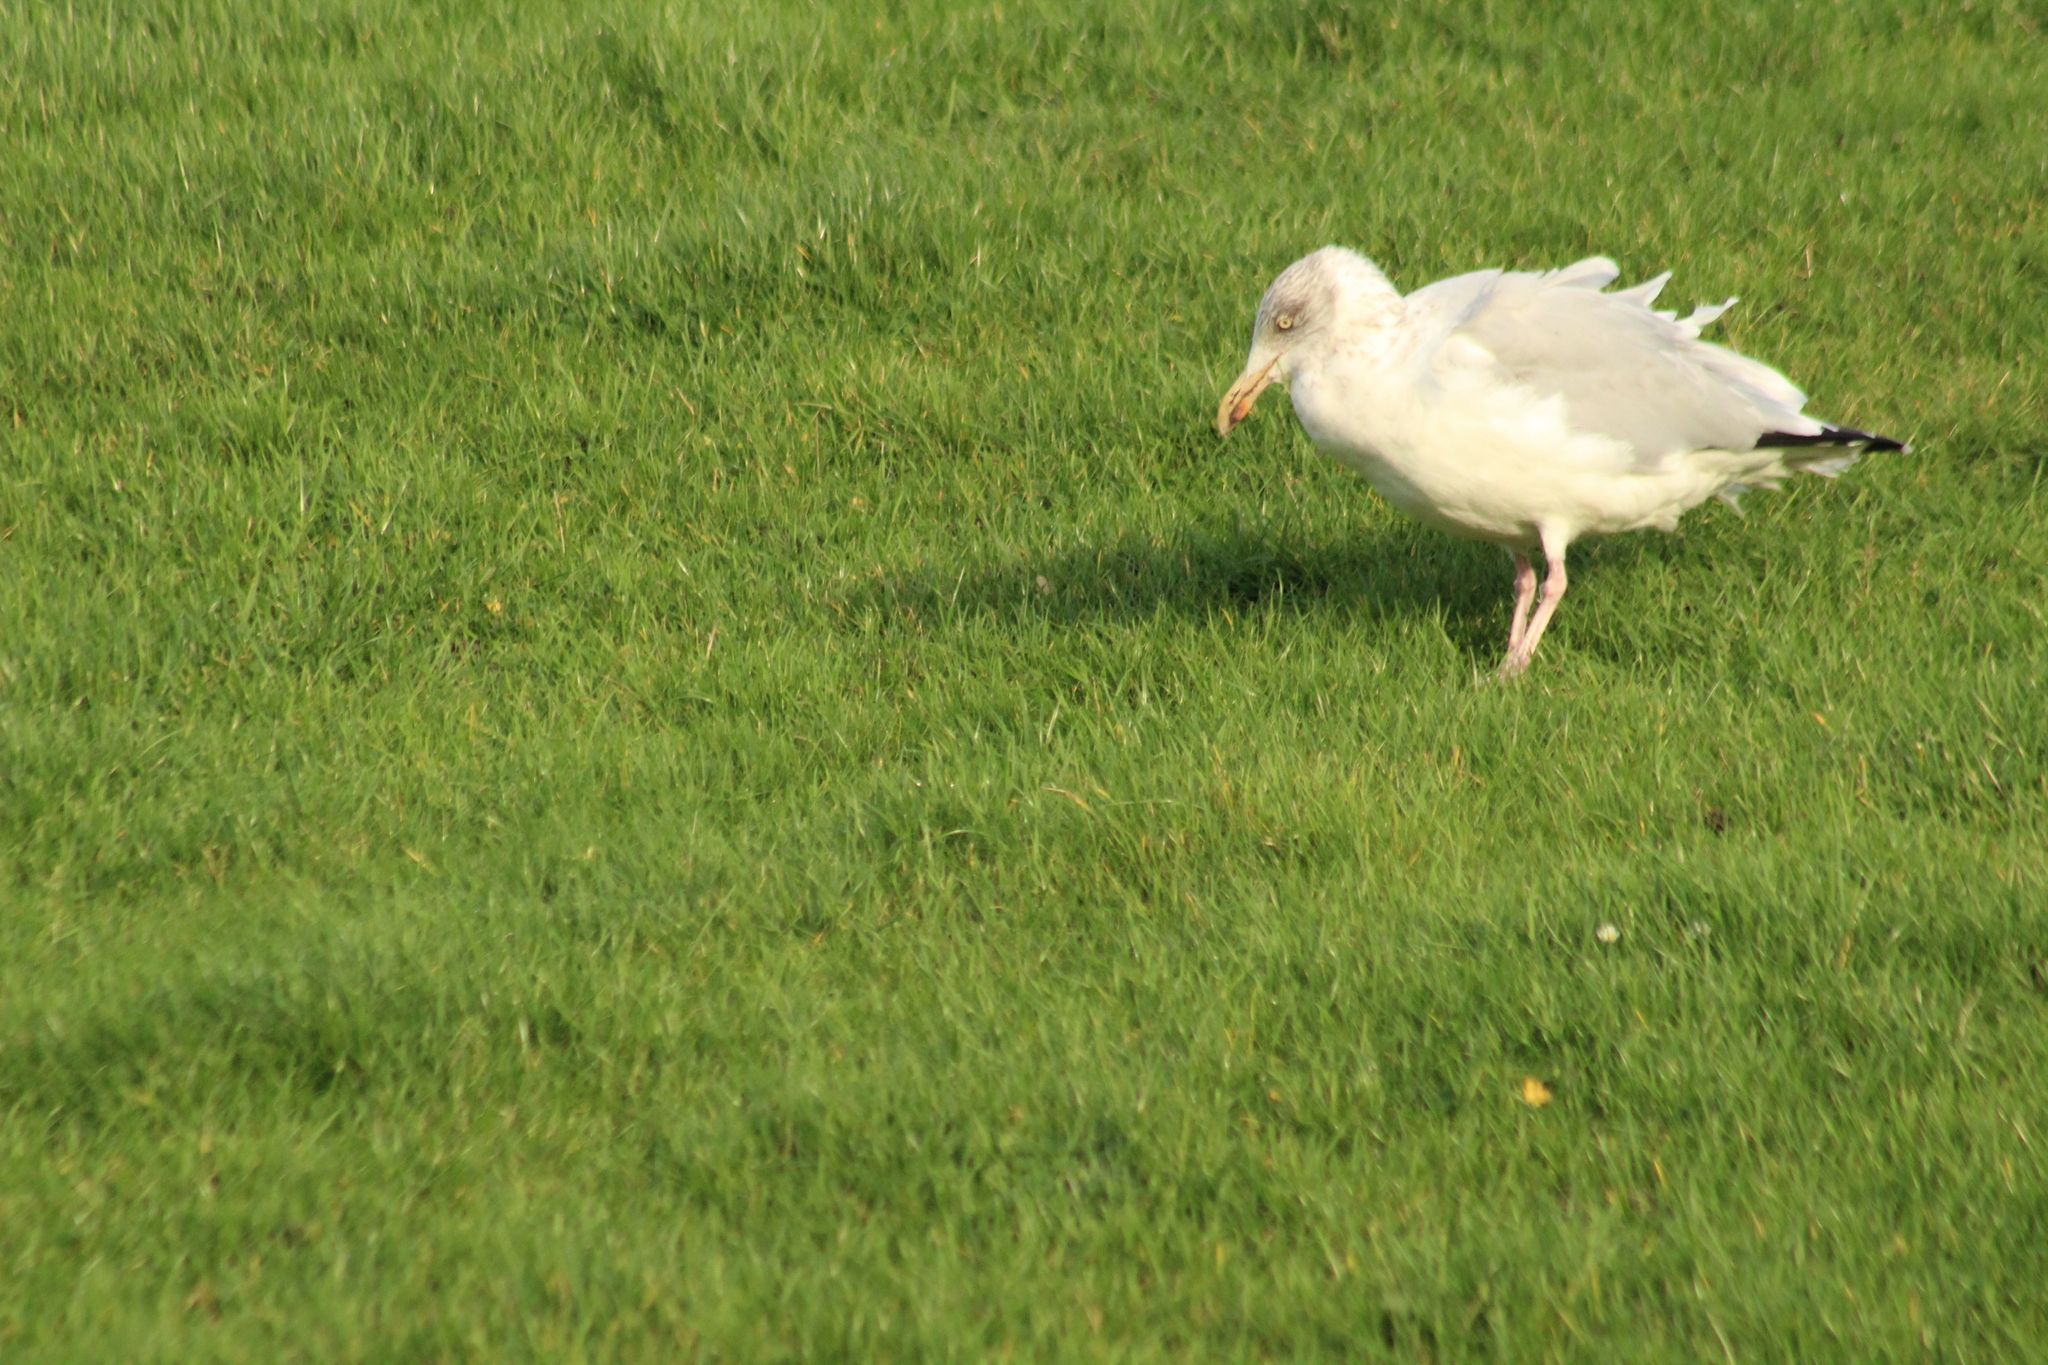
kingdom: Animalia
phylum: Chordata
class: Aves
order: Charadriiformes
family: Laridae
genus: Larus
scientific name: Larus argentatus
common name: Herring gull
